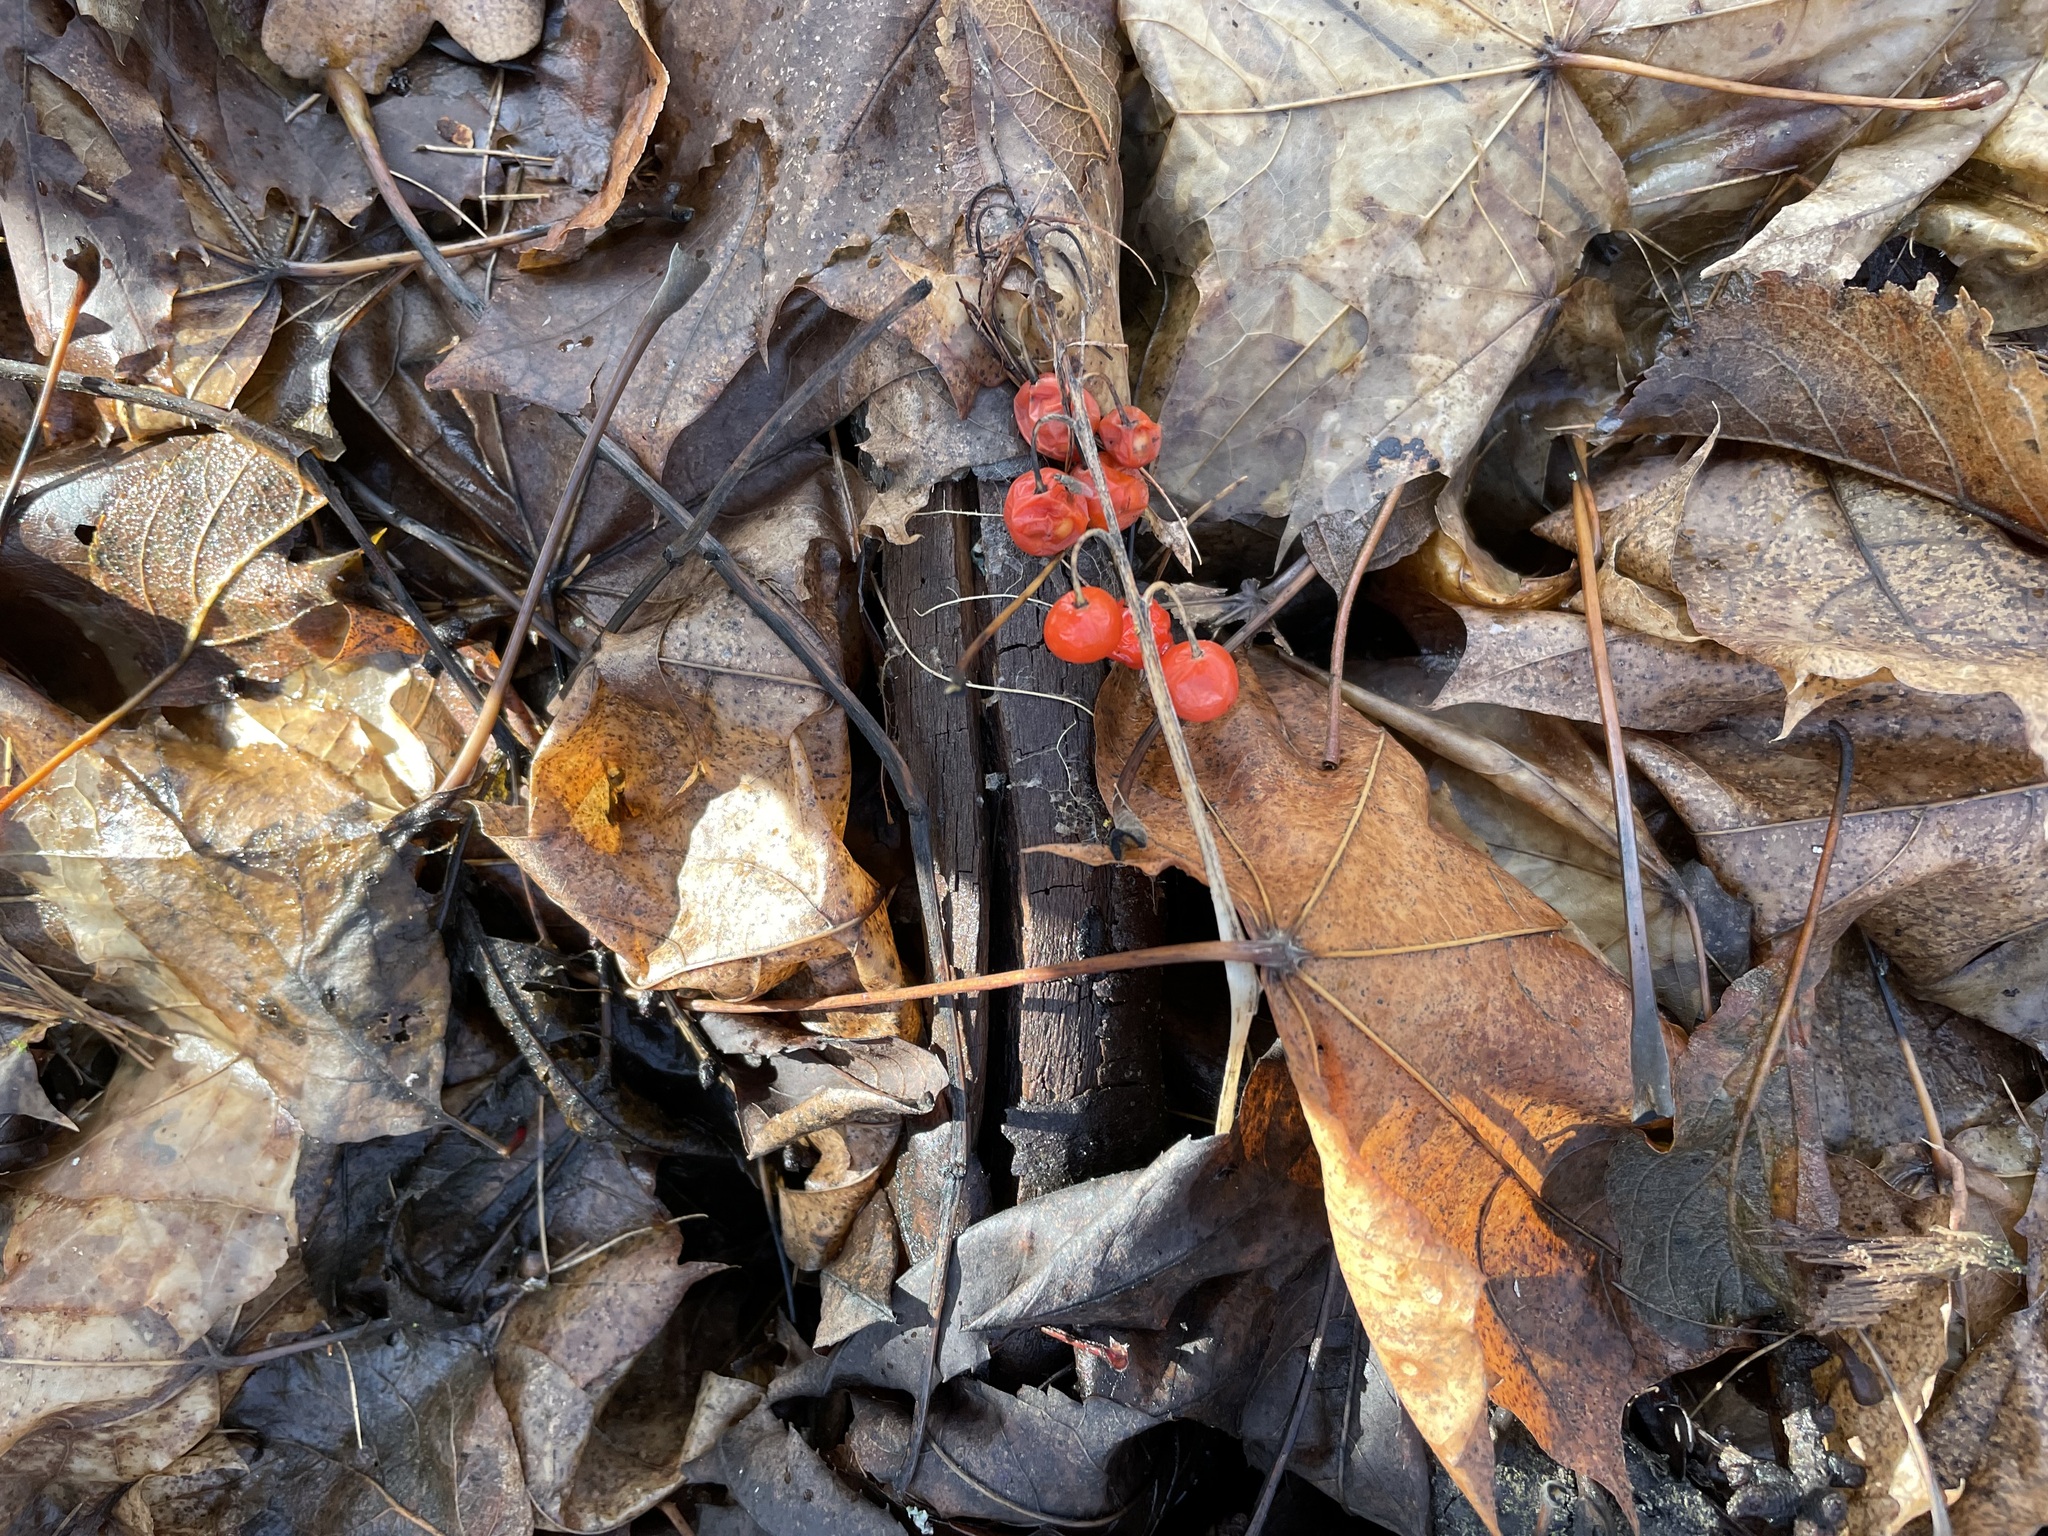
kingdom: Plantae
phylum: Tracheophyta
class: Liliopsida
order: Asparagales
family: Asparagaceae
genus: Convallaria
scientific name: Convallaria majalis
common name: Lily-of-the-valley
